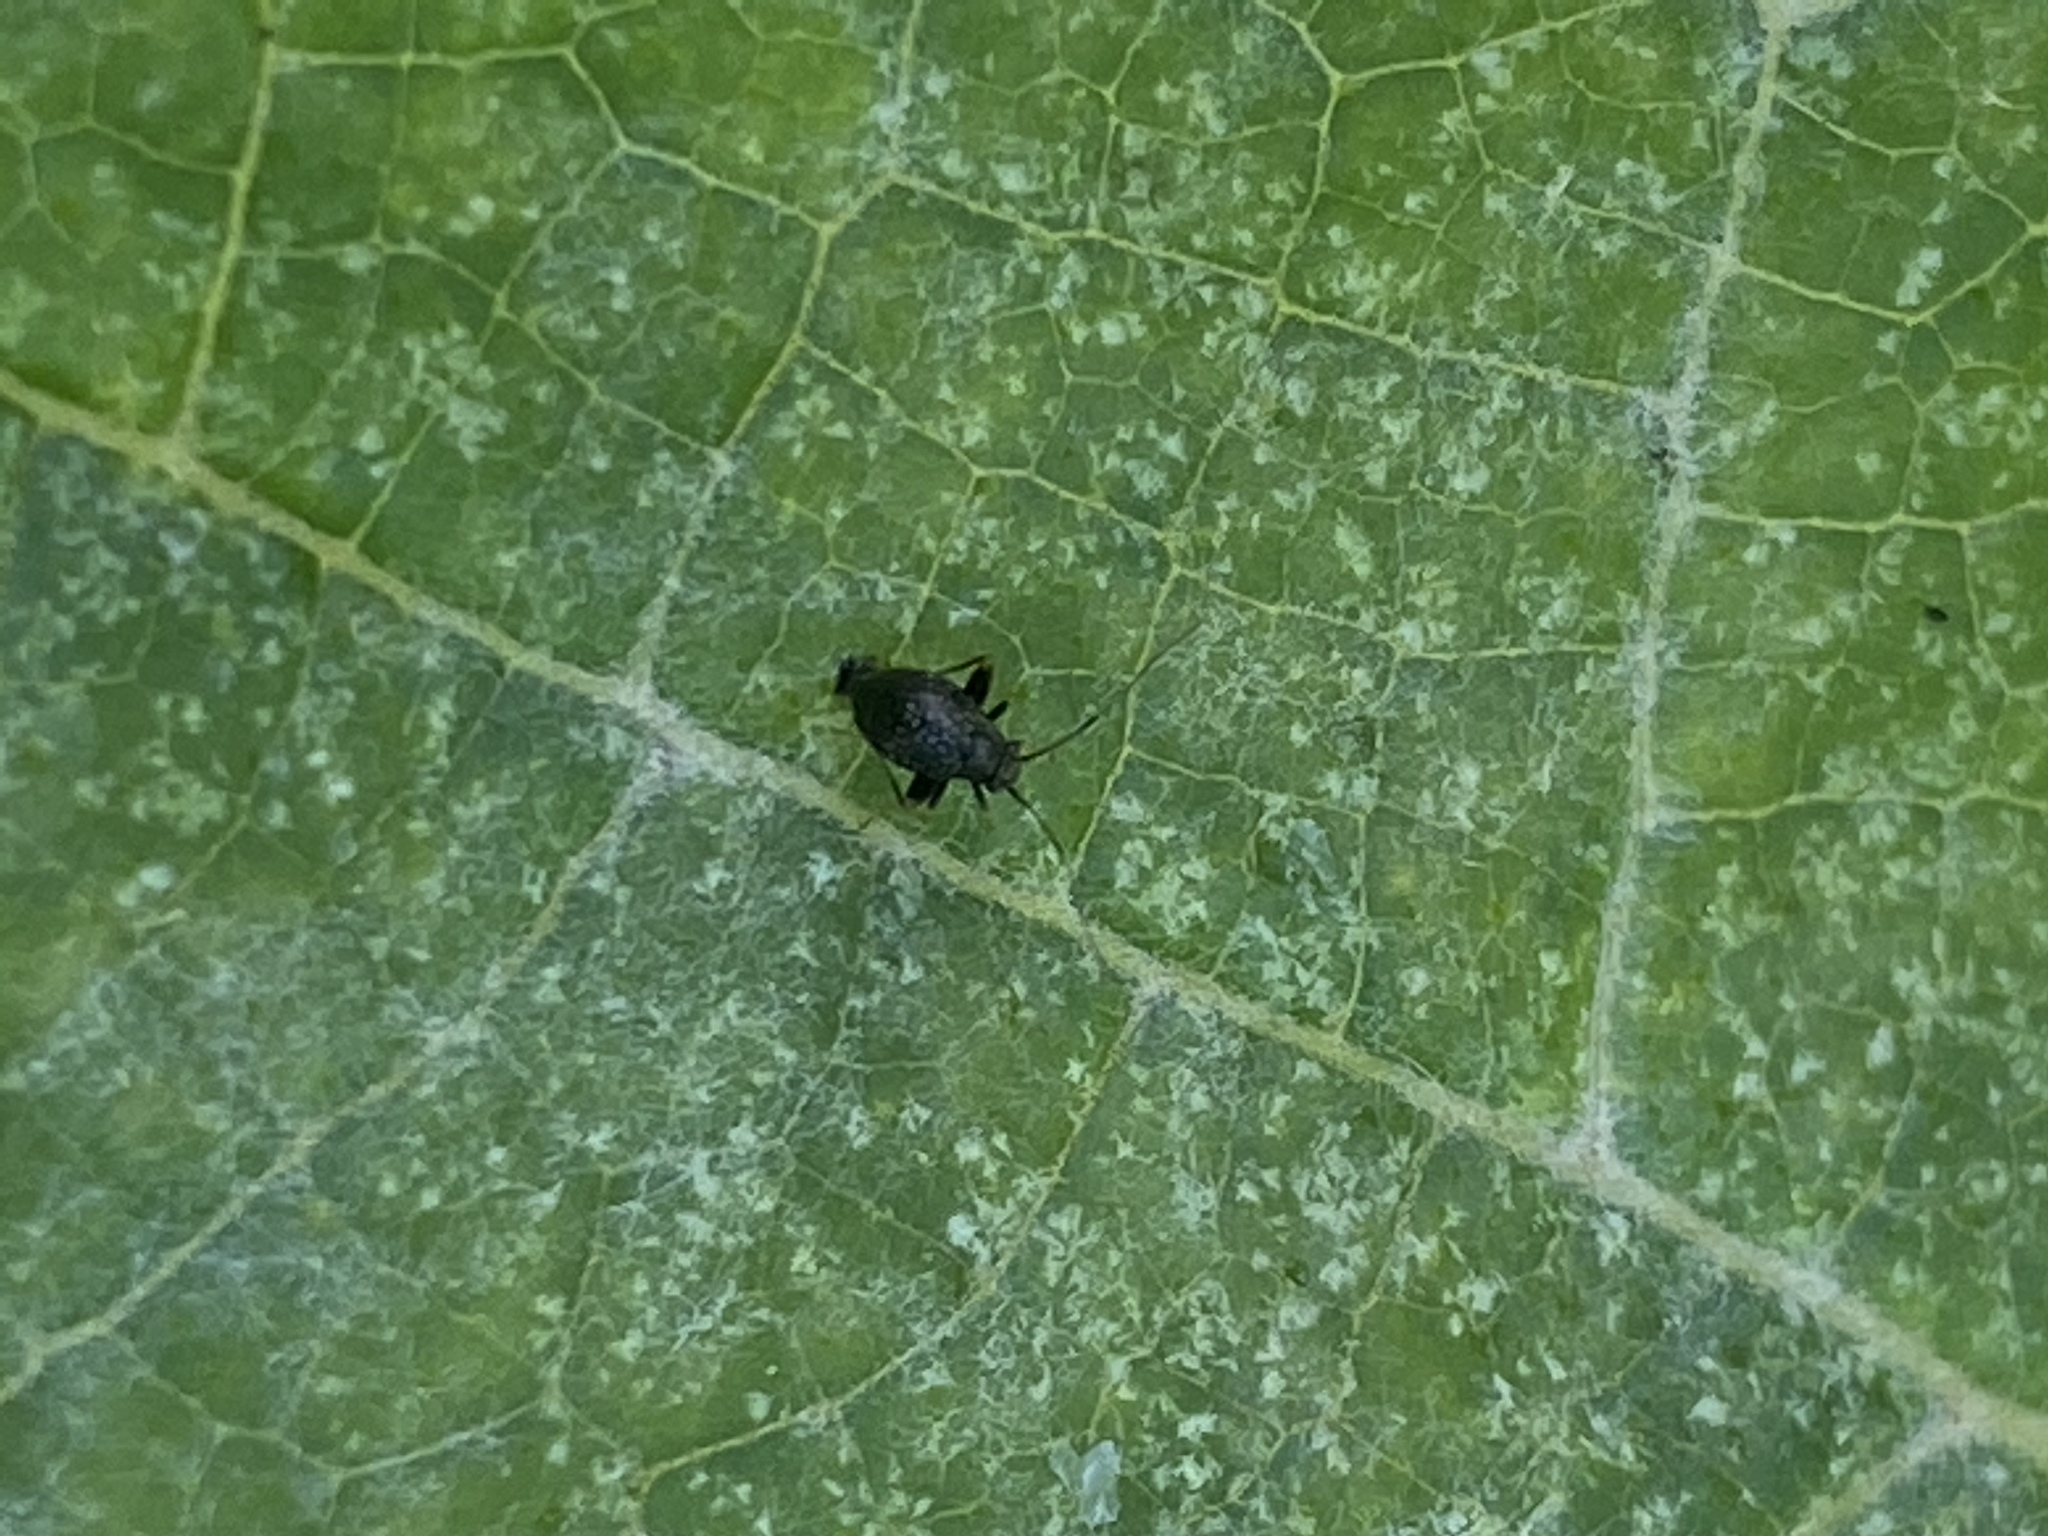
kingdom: Animalia
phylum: Arthropoda
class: Insecta
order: Hemiptera
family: Miridae
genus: Microtechnites
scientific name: Microtechnites bractatus
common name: Garden fleahopper
